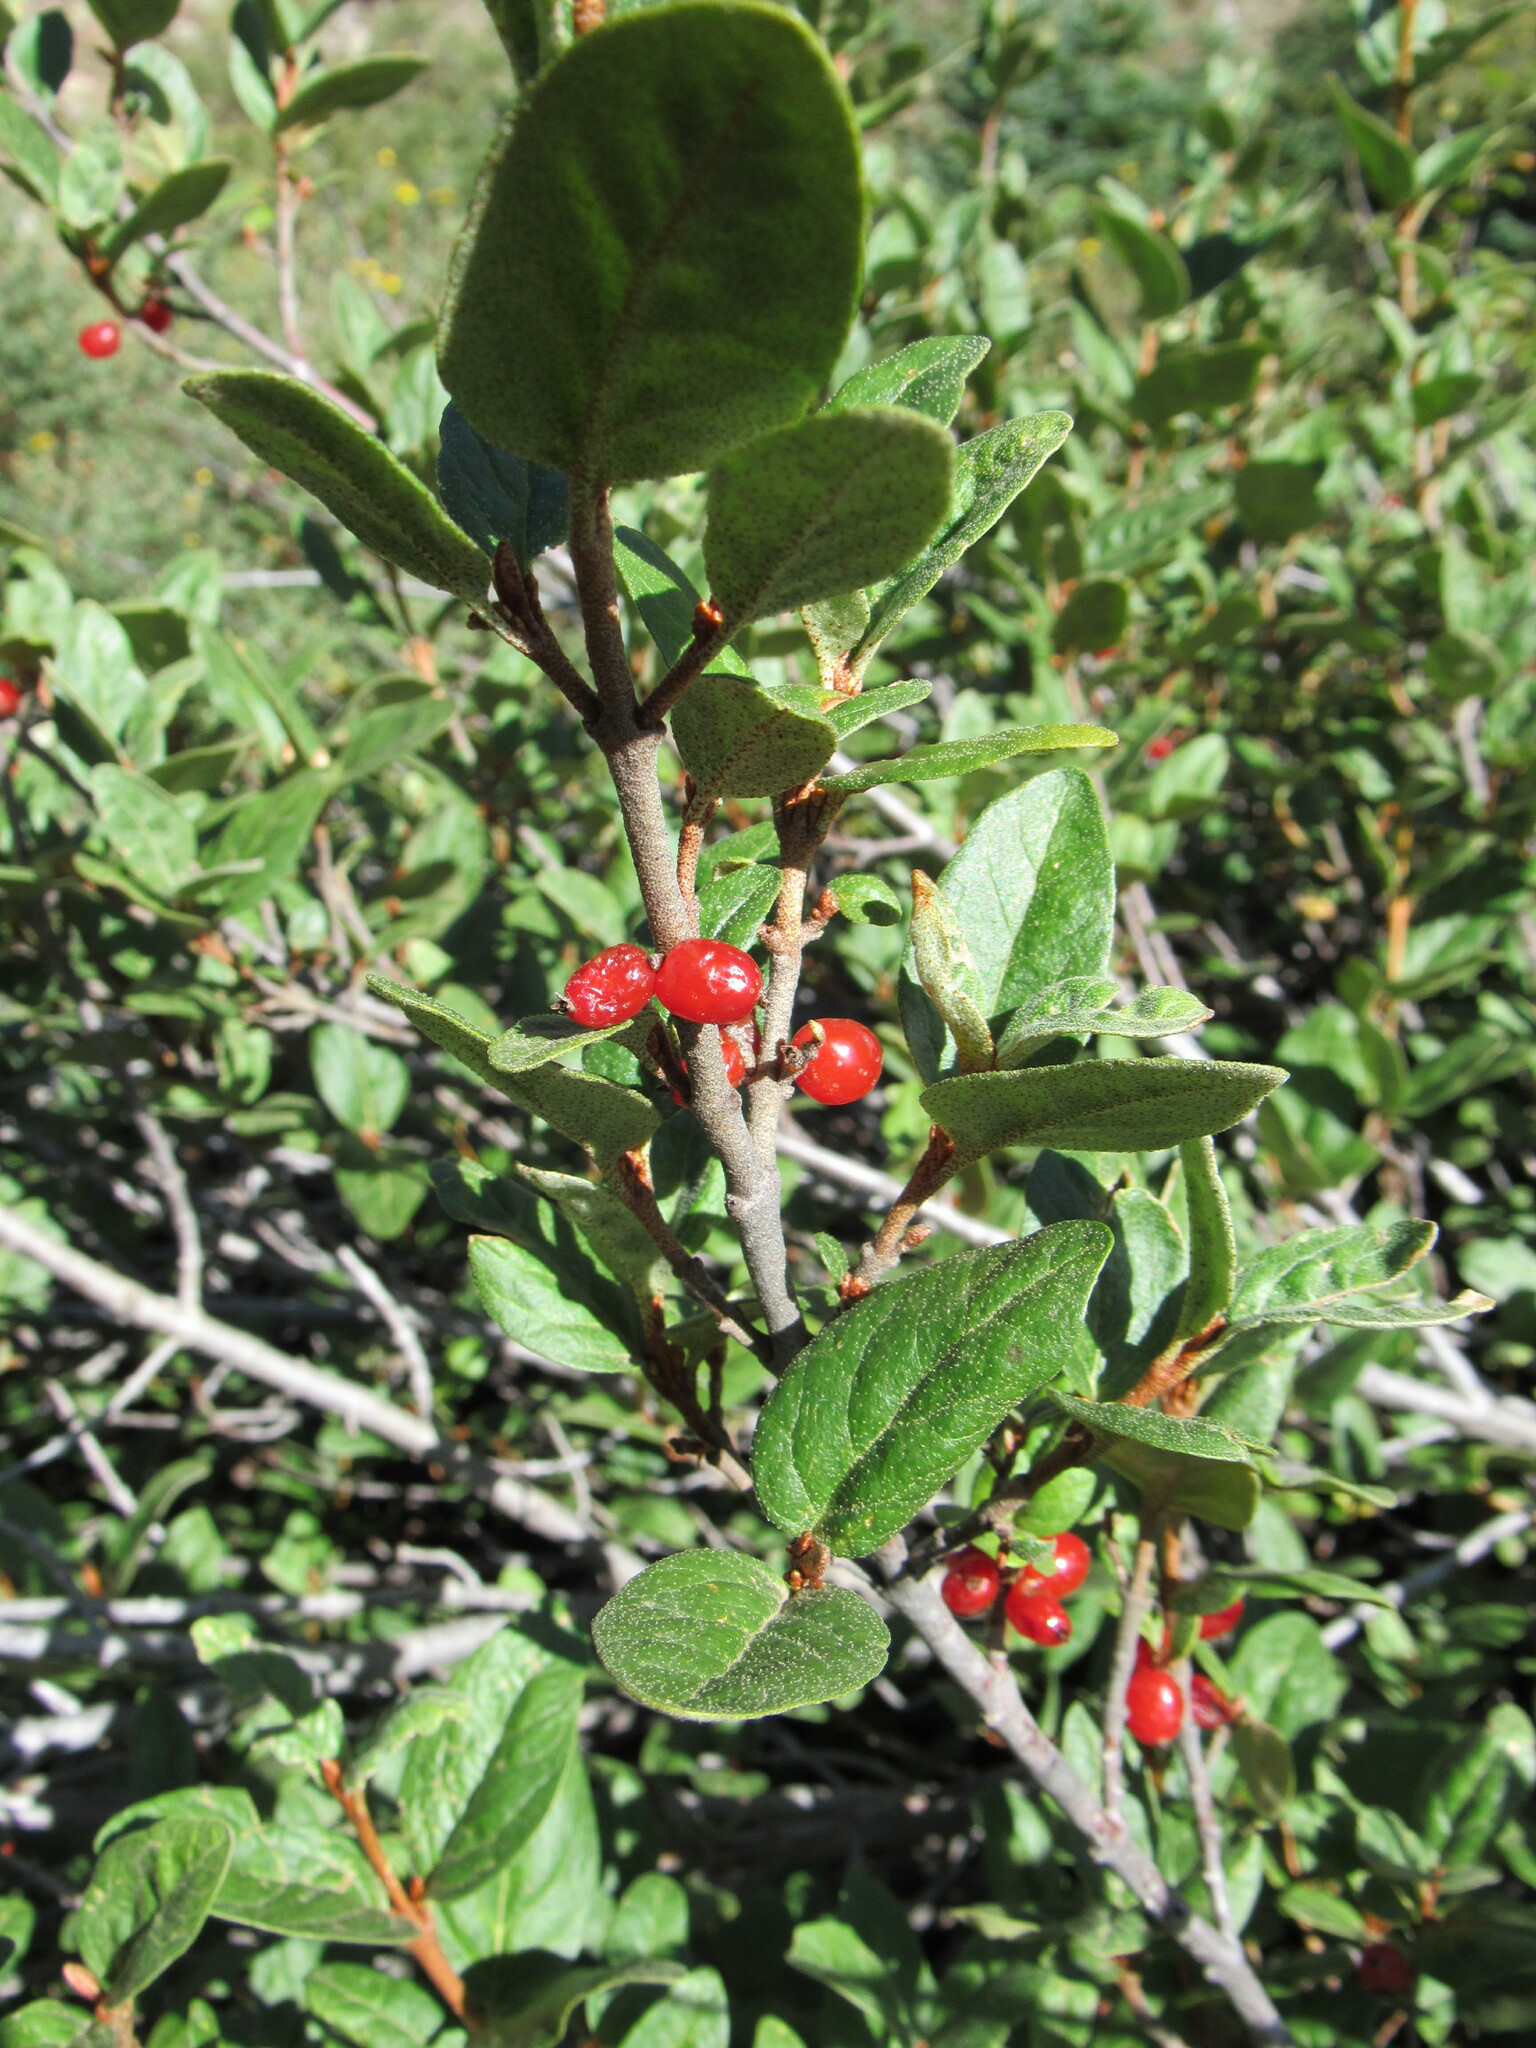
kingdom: Plantae
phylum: Tracheophyta
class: Magnoliopsida
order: Rosales
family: Elaeagnaceae
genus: Shepherdia
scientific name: Shepherdia canadensis
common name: Soapberry
